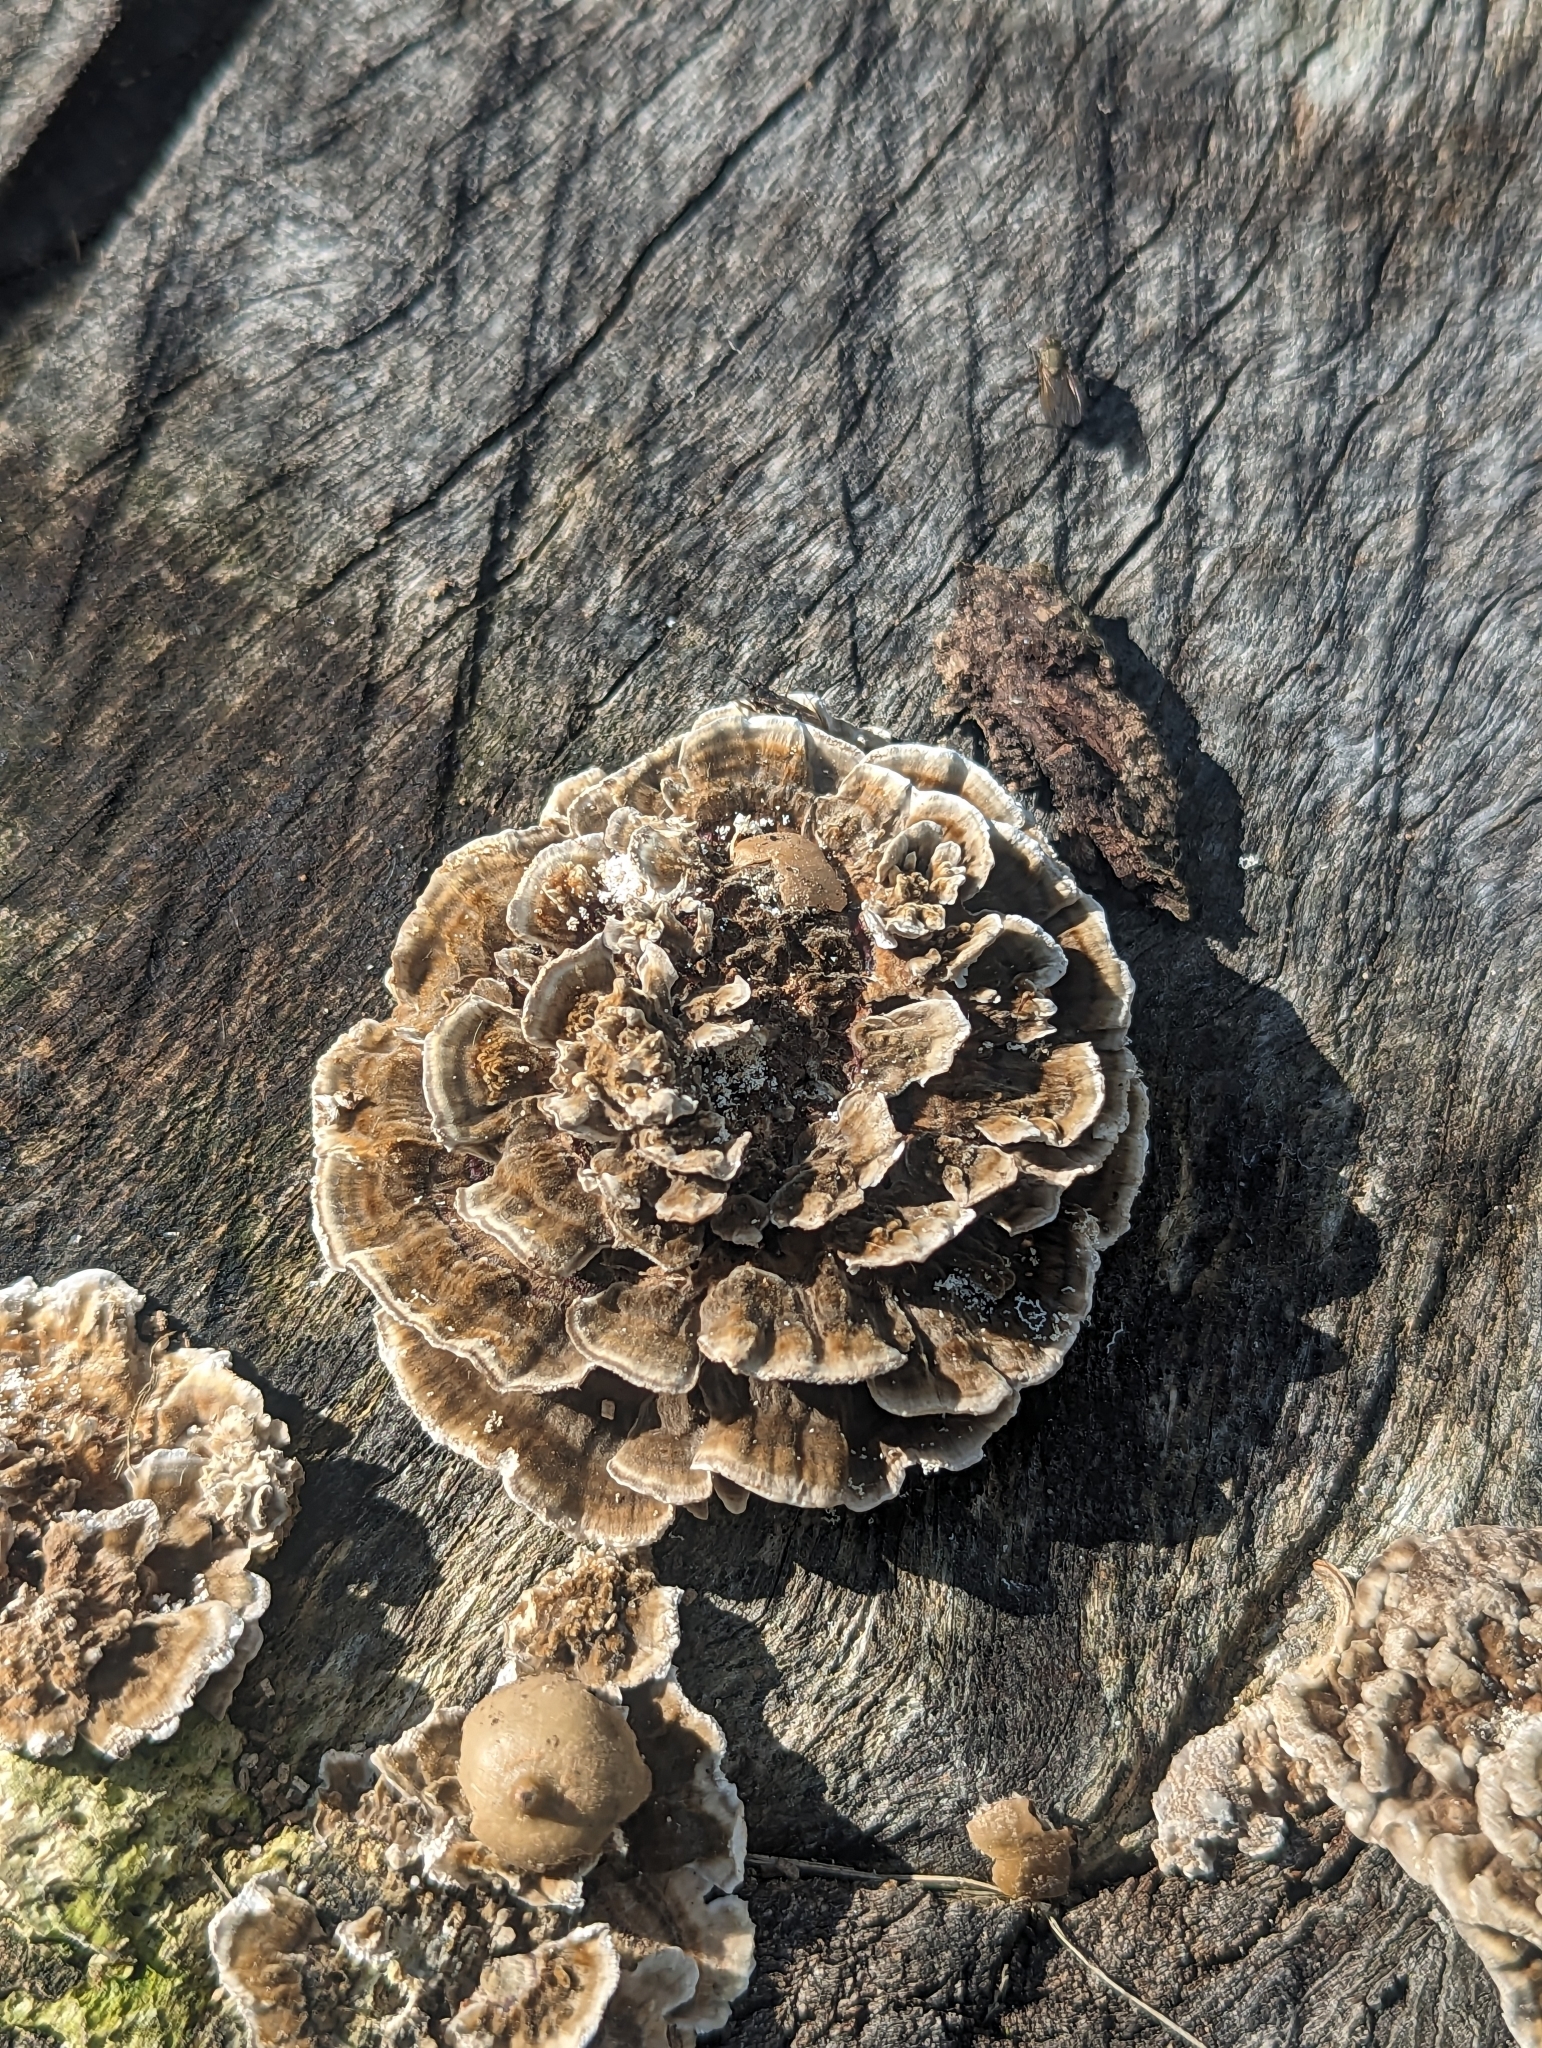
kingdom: Fungi
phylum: Basidiomycota
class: Agaricomycetes
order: Polyporales
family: Polyporaceae
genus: Trametes
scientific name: Trametes versicolor
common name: Turkeytail
